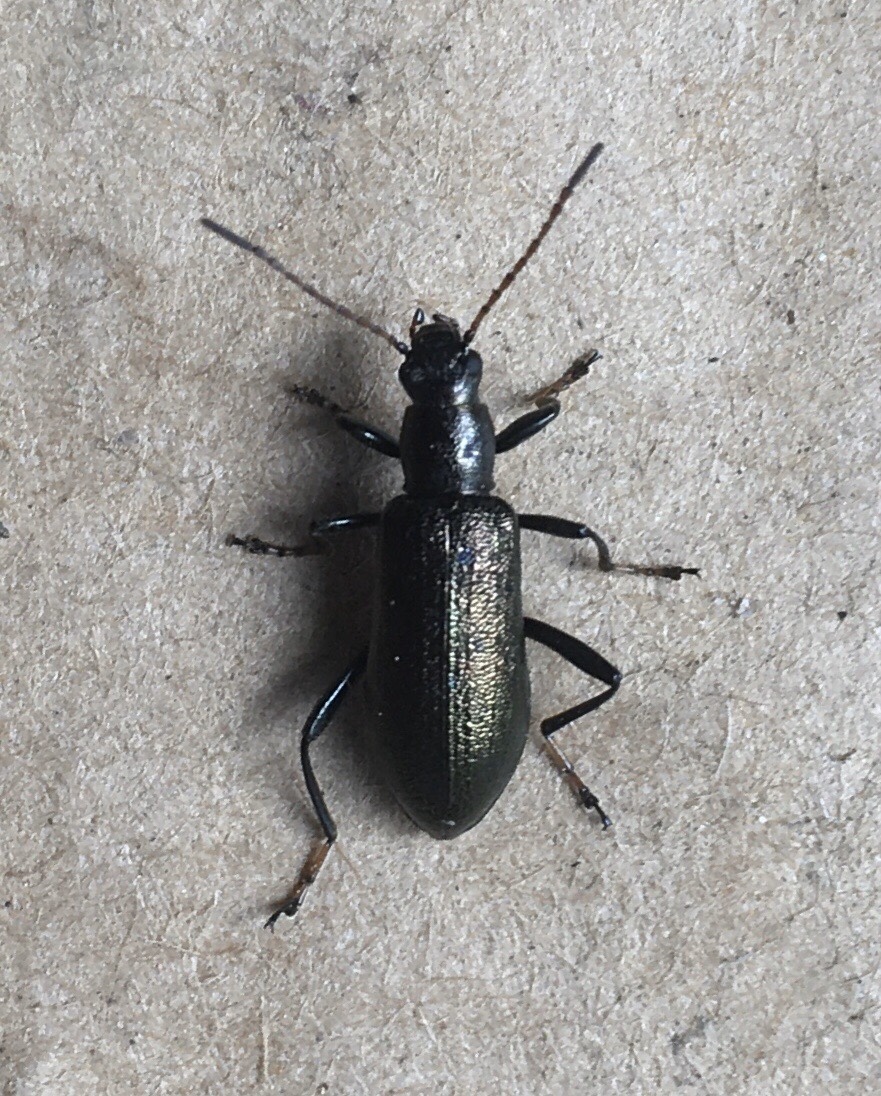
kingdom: Animalia
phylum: Arthropoda
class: Insecta
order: Coleoptera
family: Tenebrionidae
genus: Arthromacra
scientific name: Arthromacra aenea
